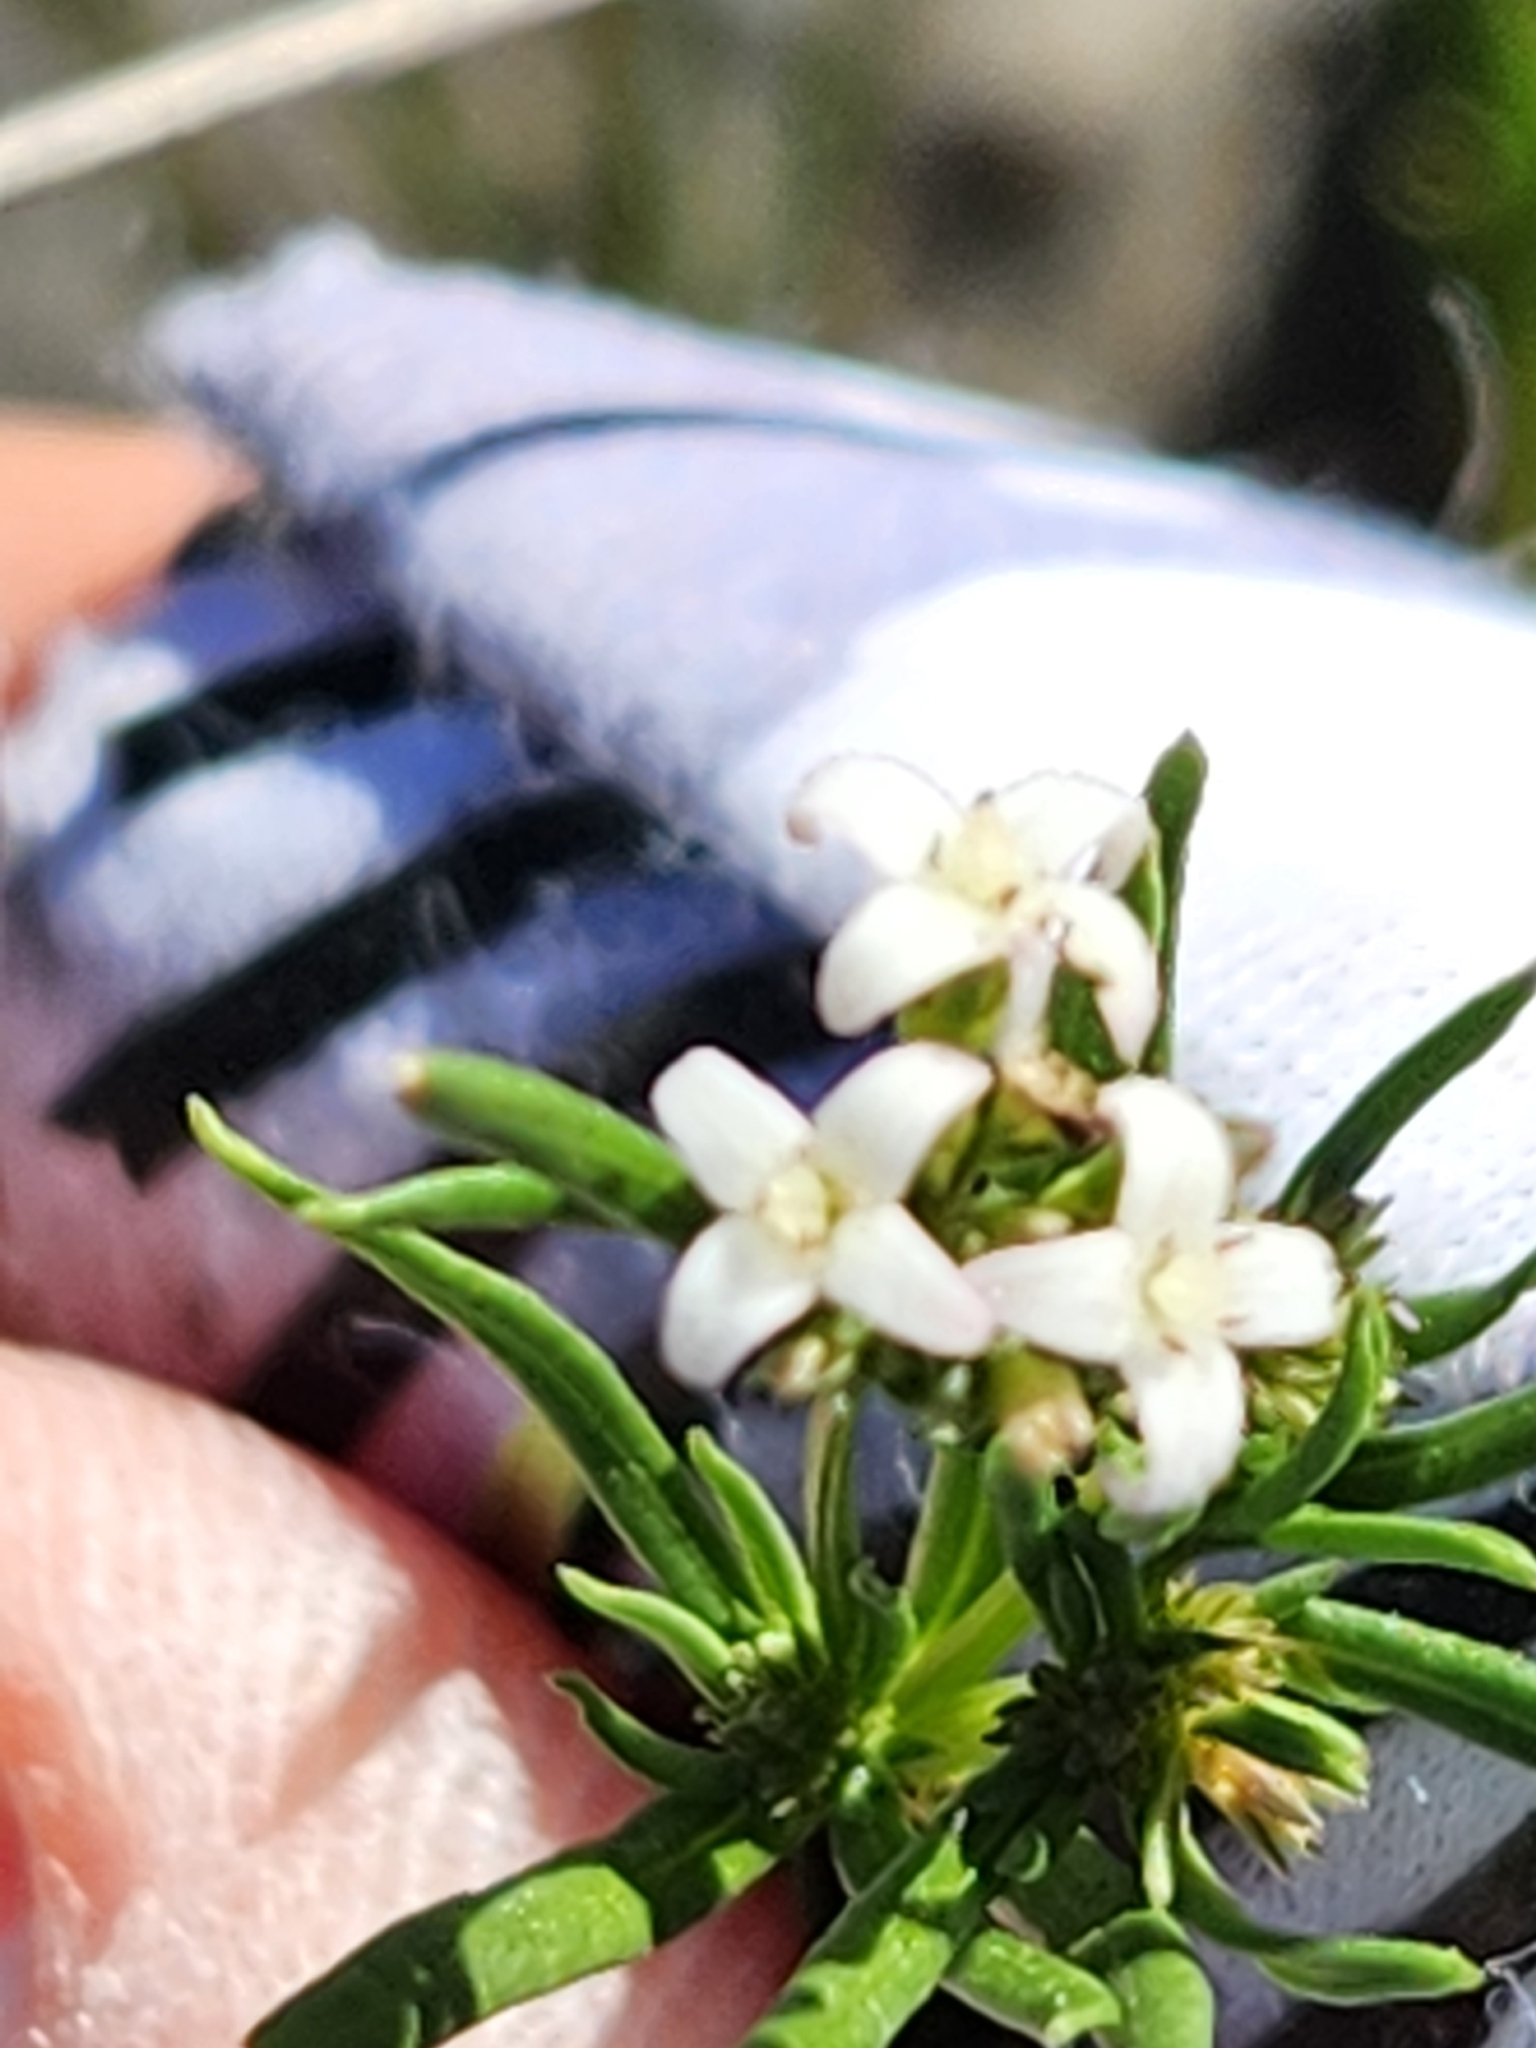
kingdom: Plantae
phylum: Tracheophyta
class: Magnoliopsida
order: Gentianales
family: Rubiaceae
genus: Stenaria
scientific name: Stenaria nigricans
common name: Diamondflowers
